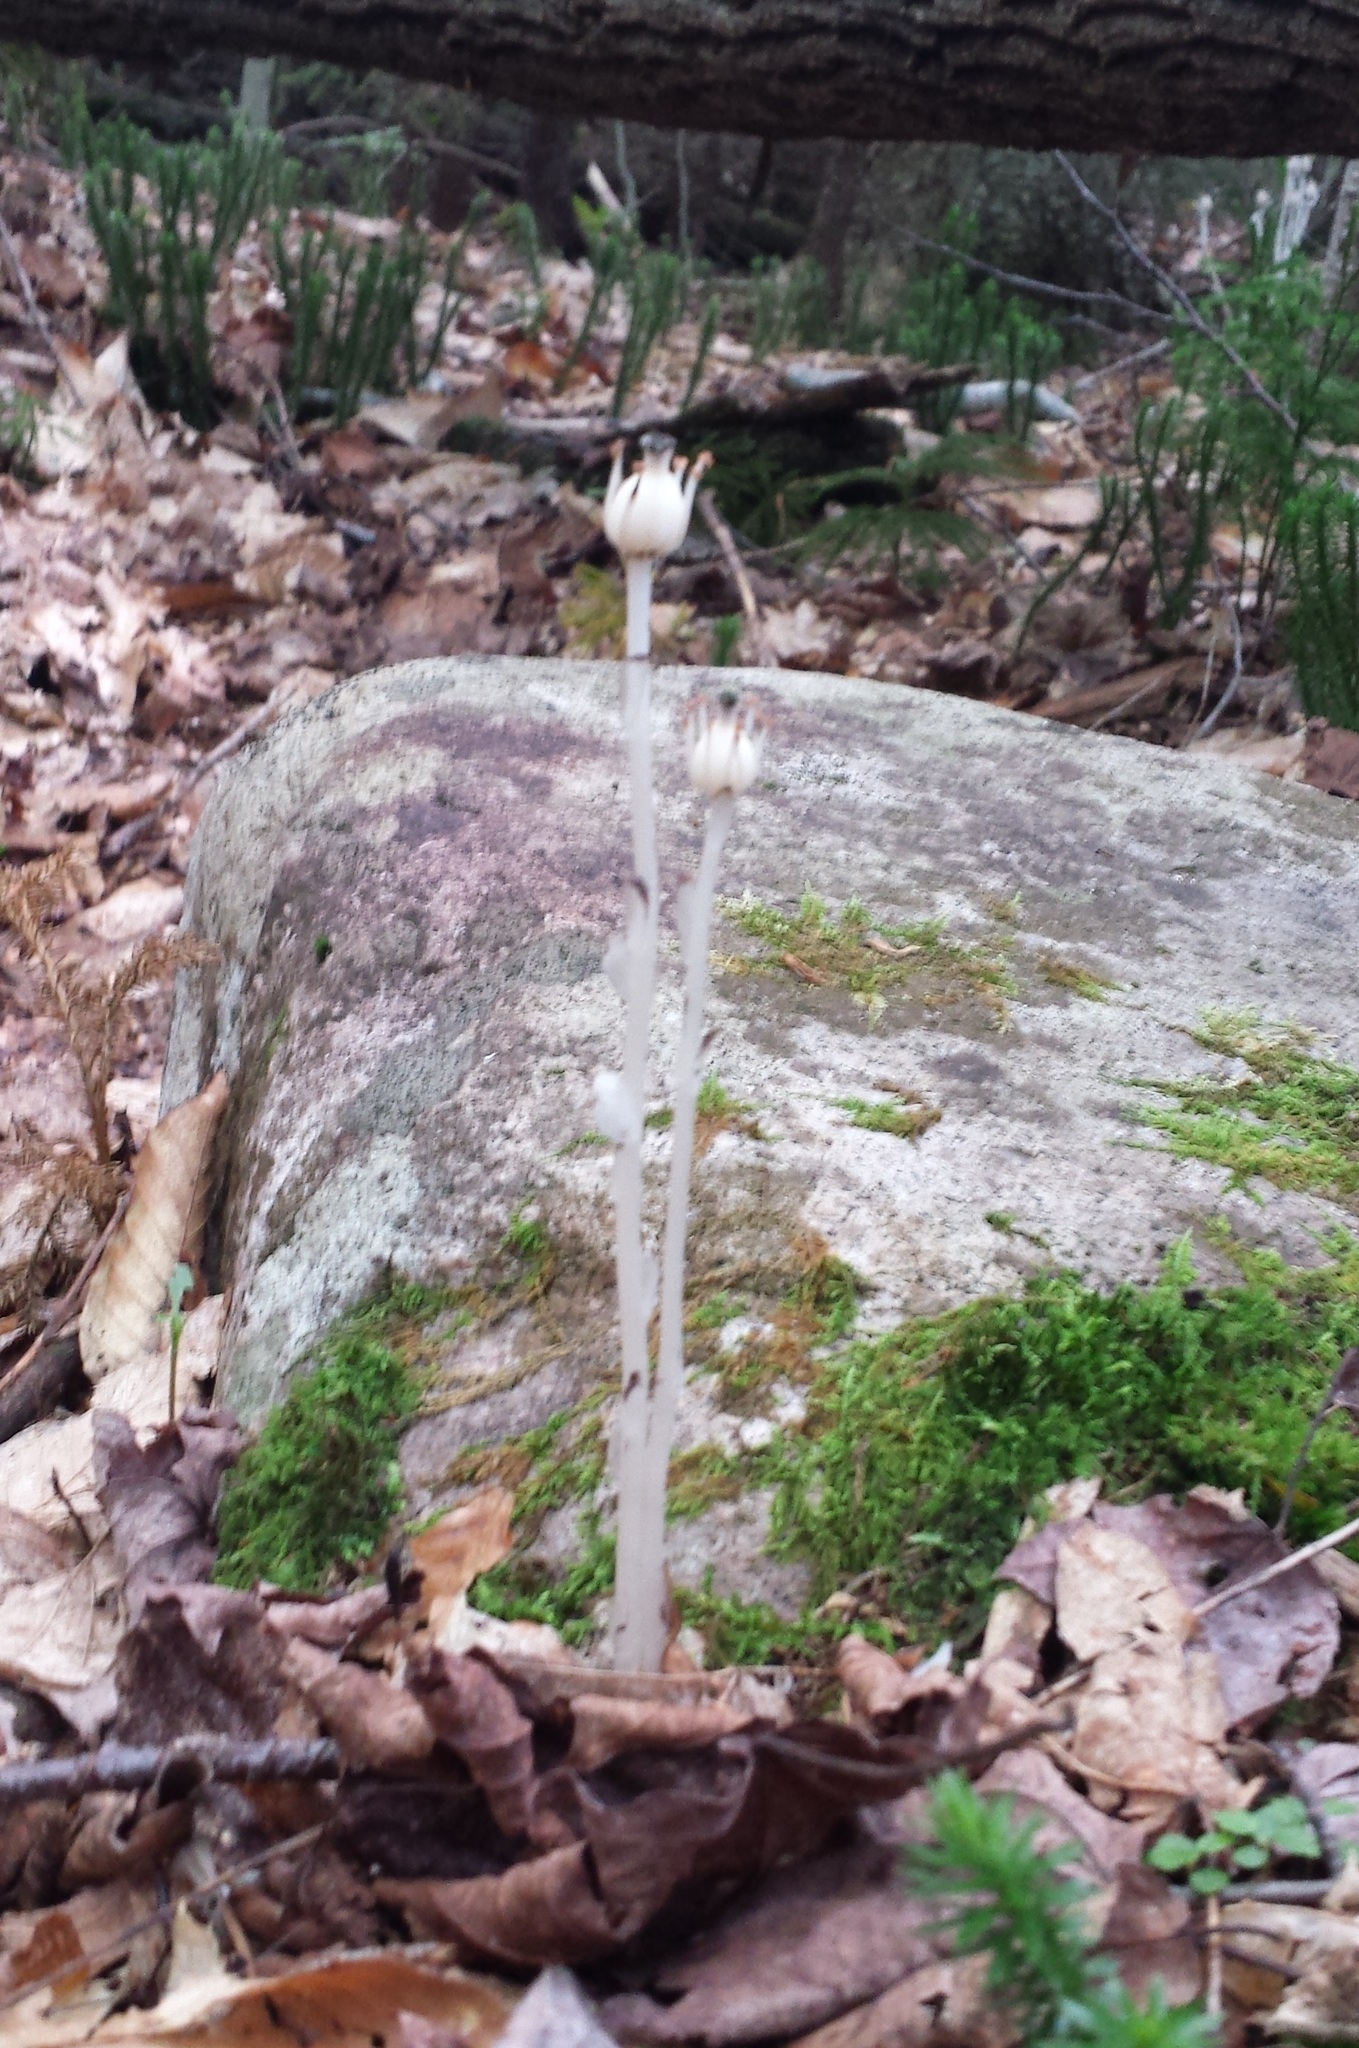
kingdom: Plantae
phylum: Tracheophyta
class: Magnoliopsida
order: Ericales
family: Ericaceae
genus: Monotropa
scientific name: Monotropa uniflora
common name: Convulsion root
